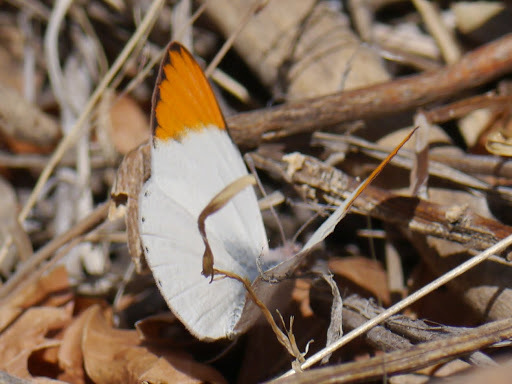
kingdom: Animalia
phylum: Arthropoda
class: Insecta
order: Lepidoptera
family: Pieridae
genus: Colotis
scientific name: Colotis evenina
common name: Common orange tip
